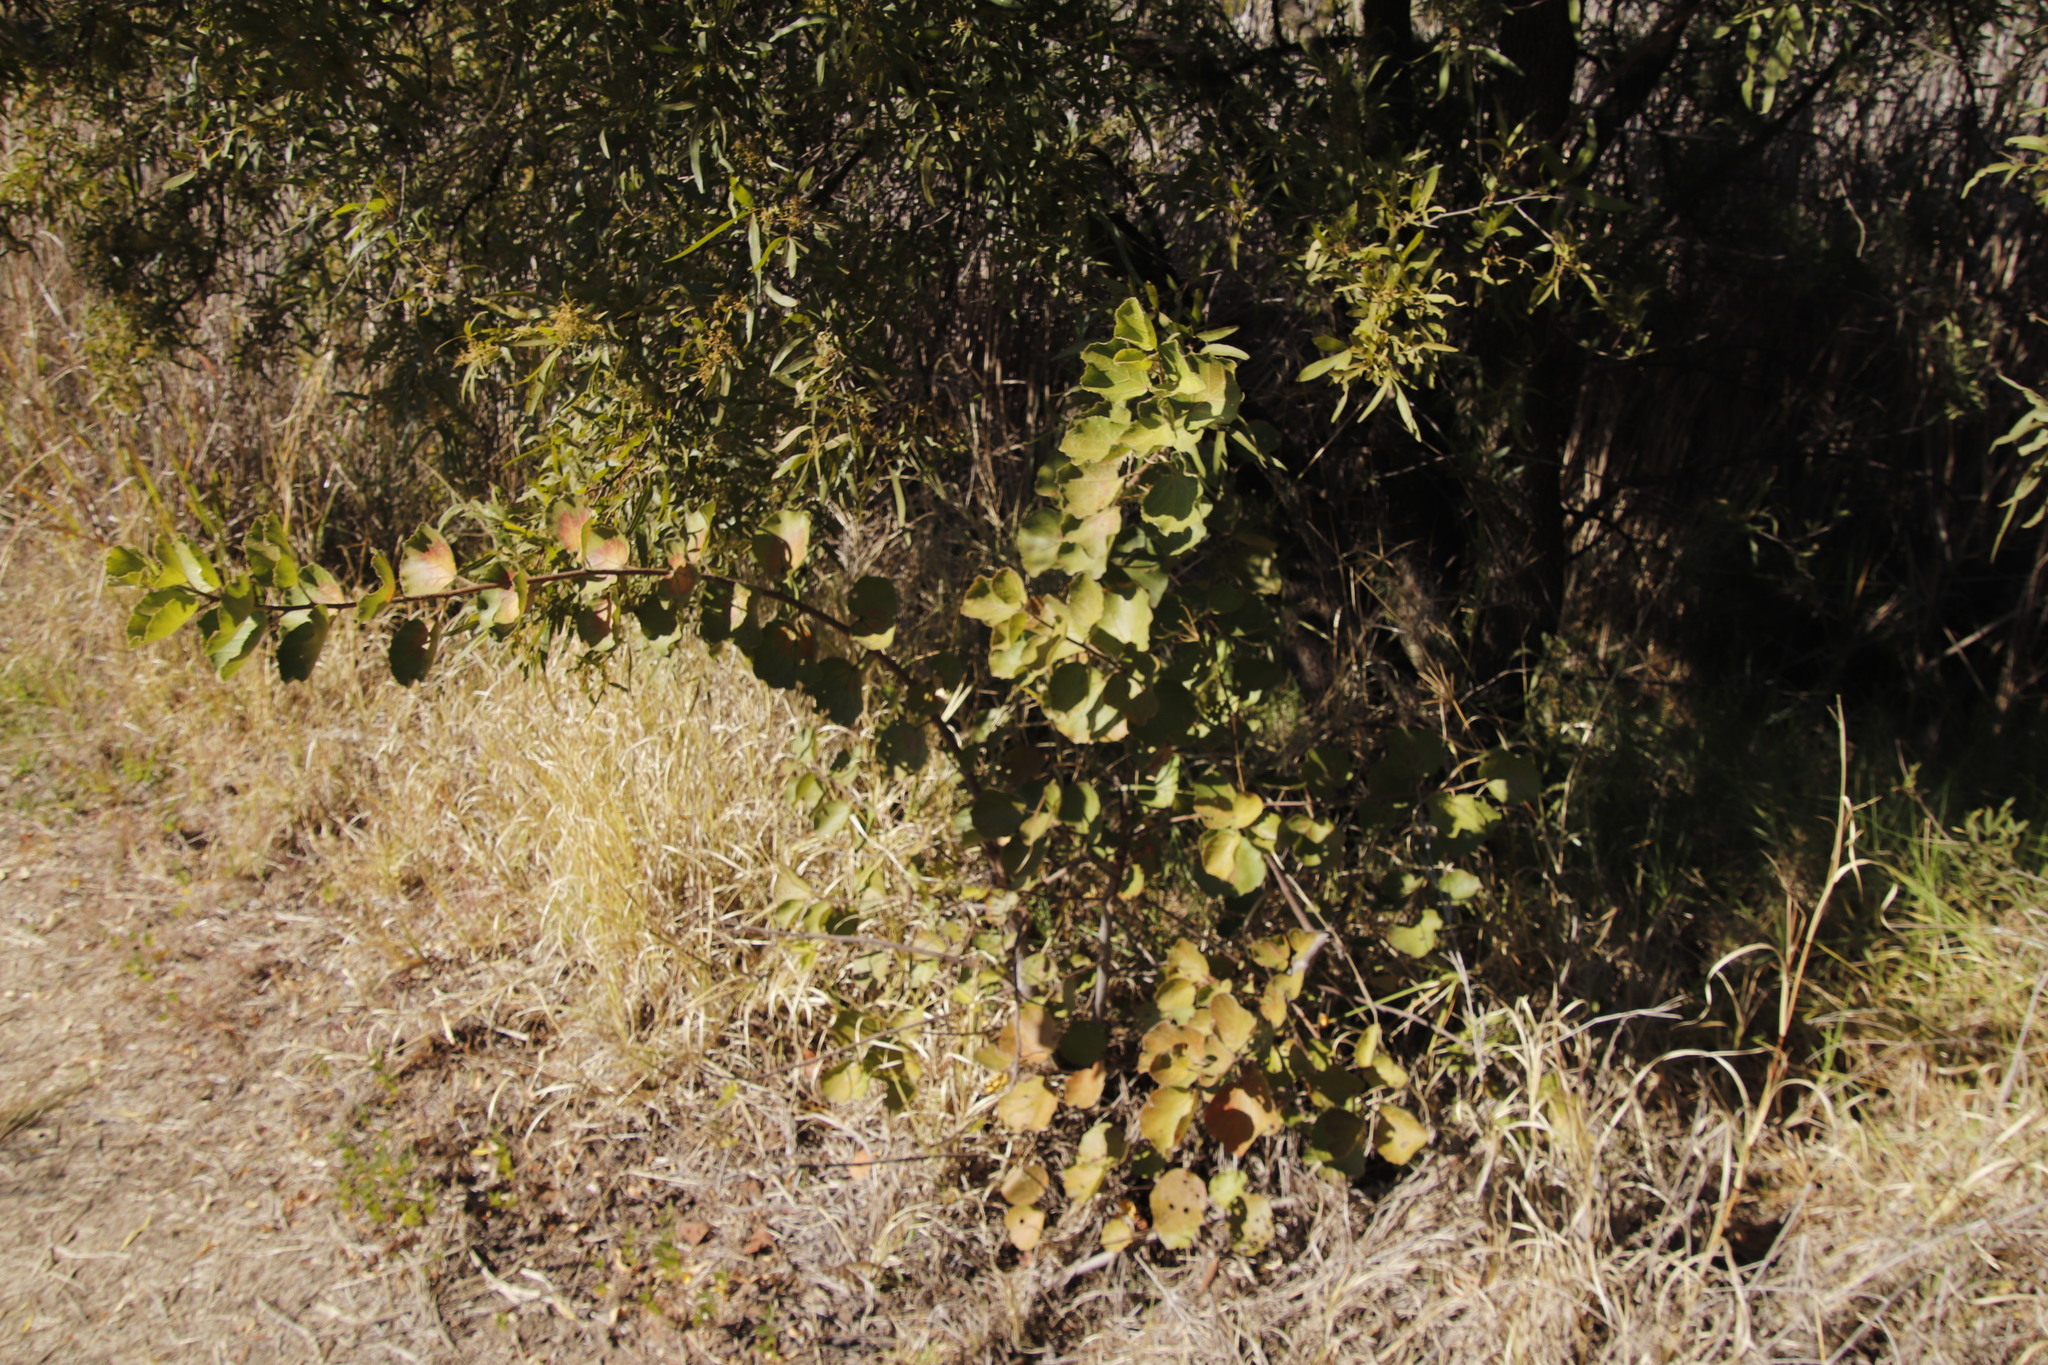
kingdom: Plantae
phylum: Tracheophyta
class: Magnoliopsida
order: Malvales
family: Malvaceae
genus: Dombeya
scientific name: Dombeya rotundifolia
